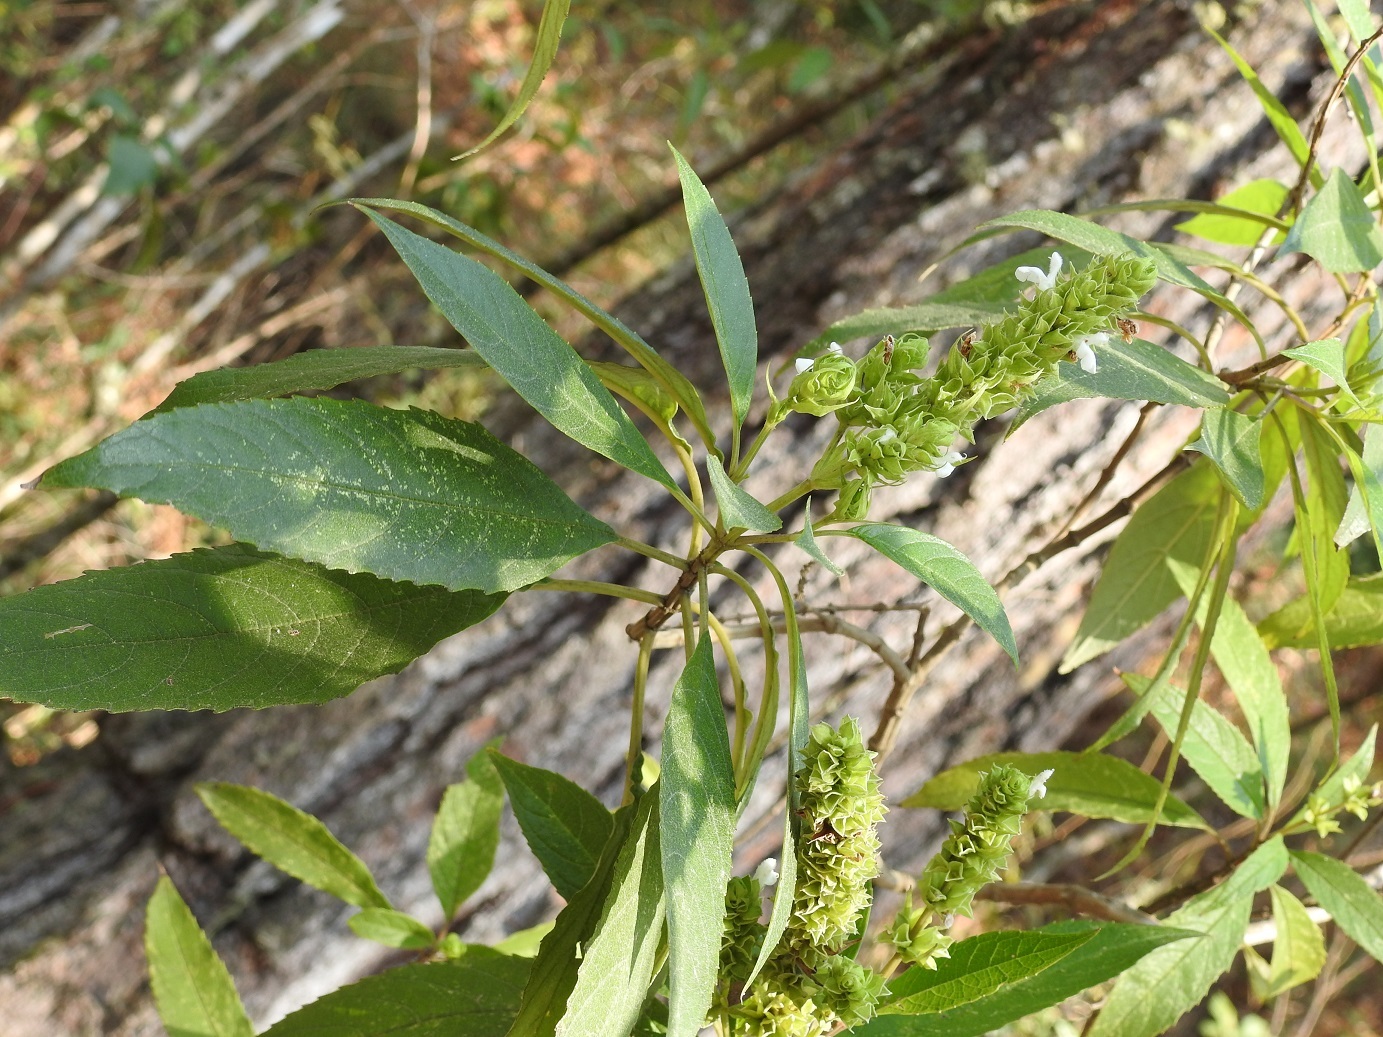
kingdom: Plantae
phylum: Tracheophyta
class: Magnoliopsida
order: Lamiales
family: Lamiaceae
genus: Salvia
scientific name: Salvia collinsii
